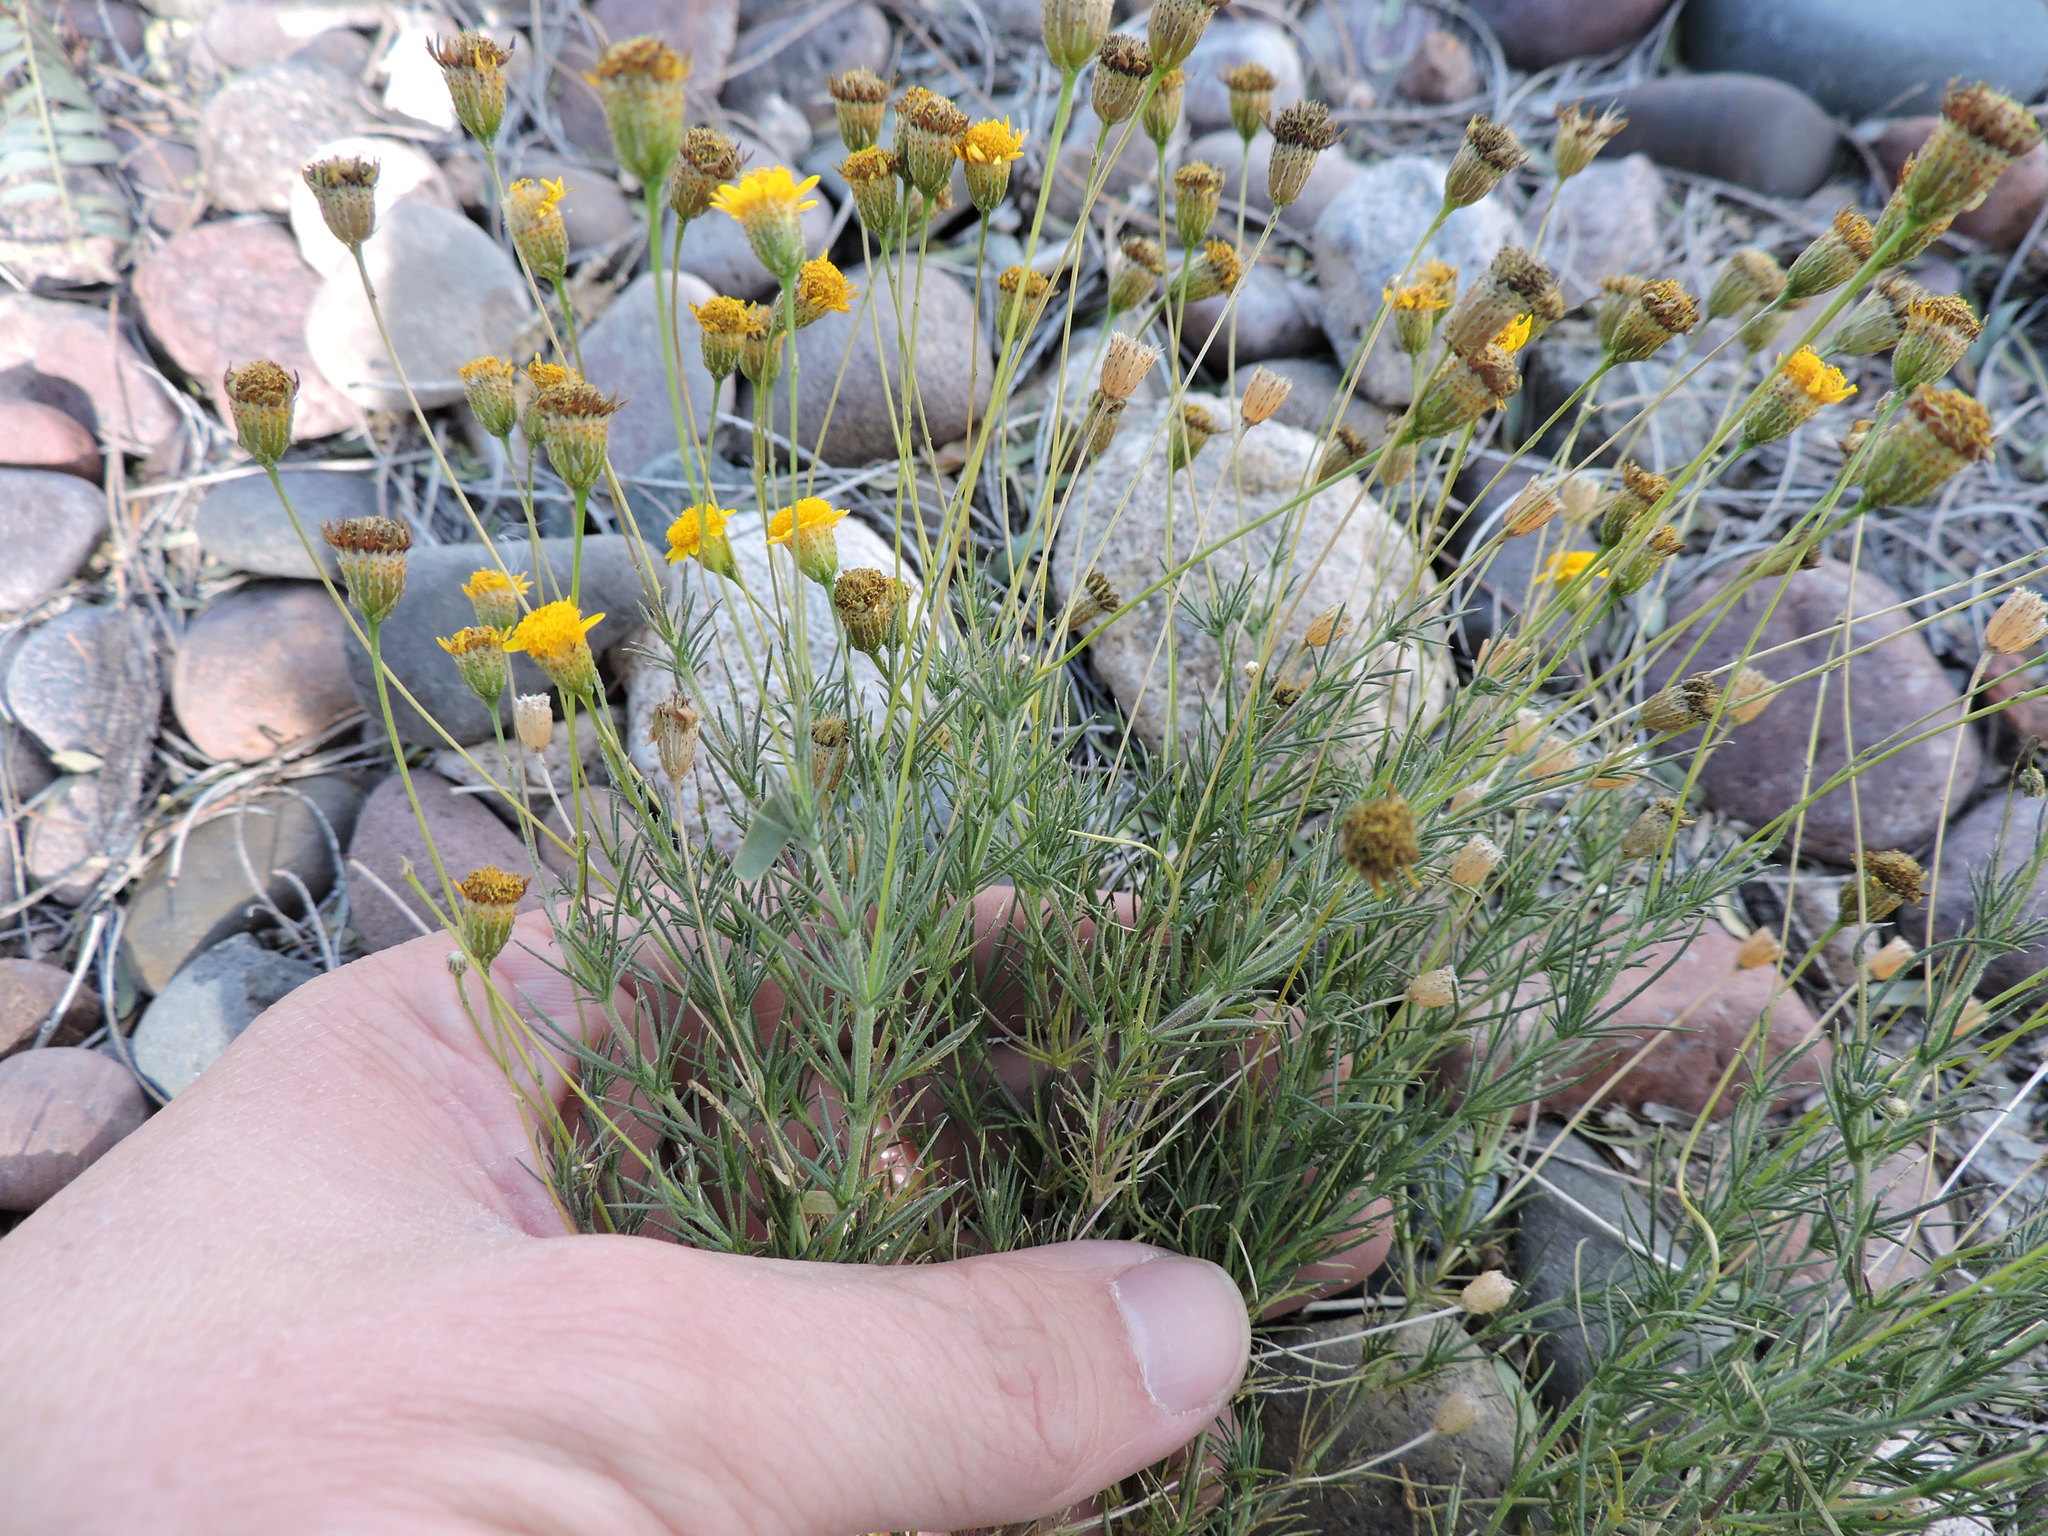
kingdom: Plantae
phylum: Tracheophyta
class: Magnoliopsida
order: Asterales
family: Asteraceae
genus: Thymophylla
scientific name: Thymophylla pentachaeta
